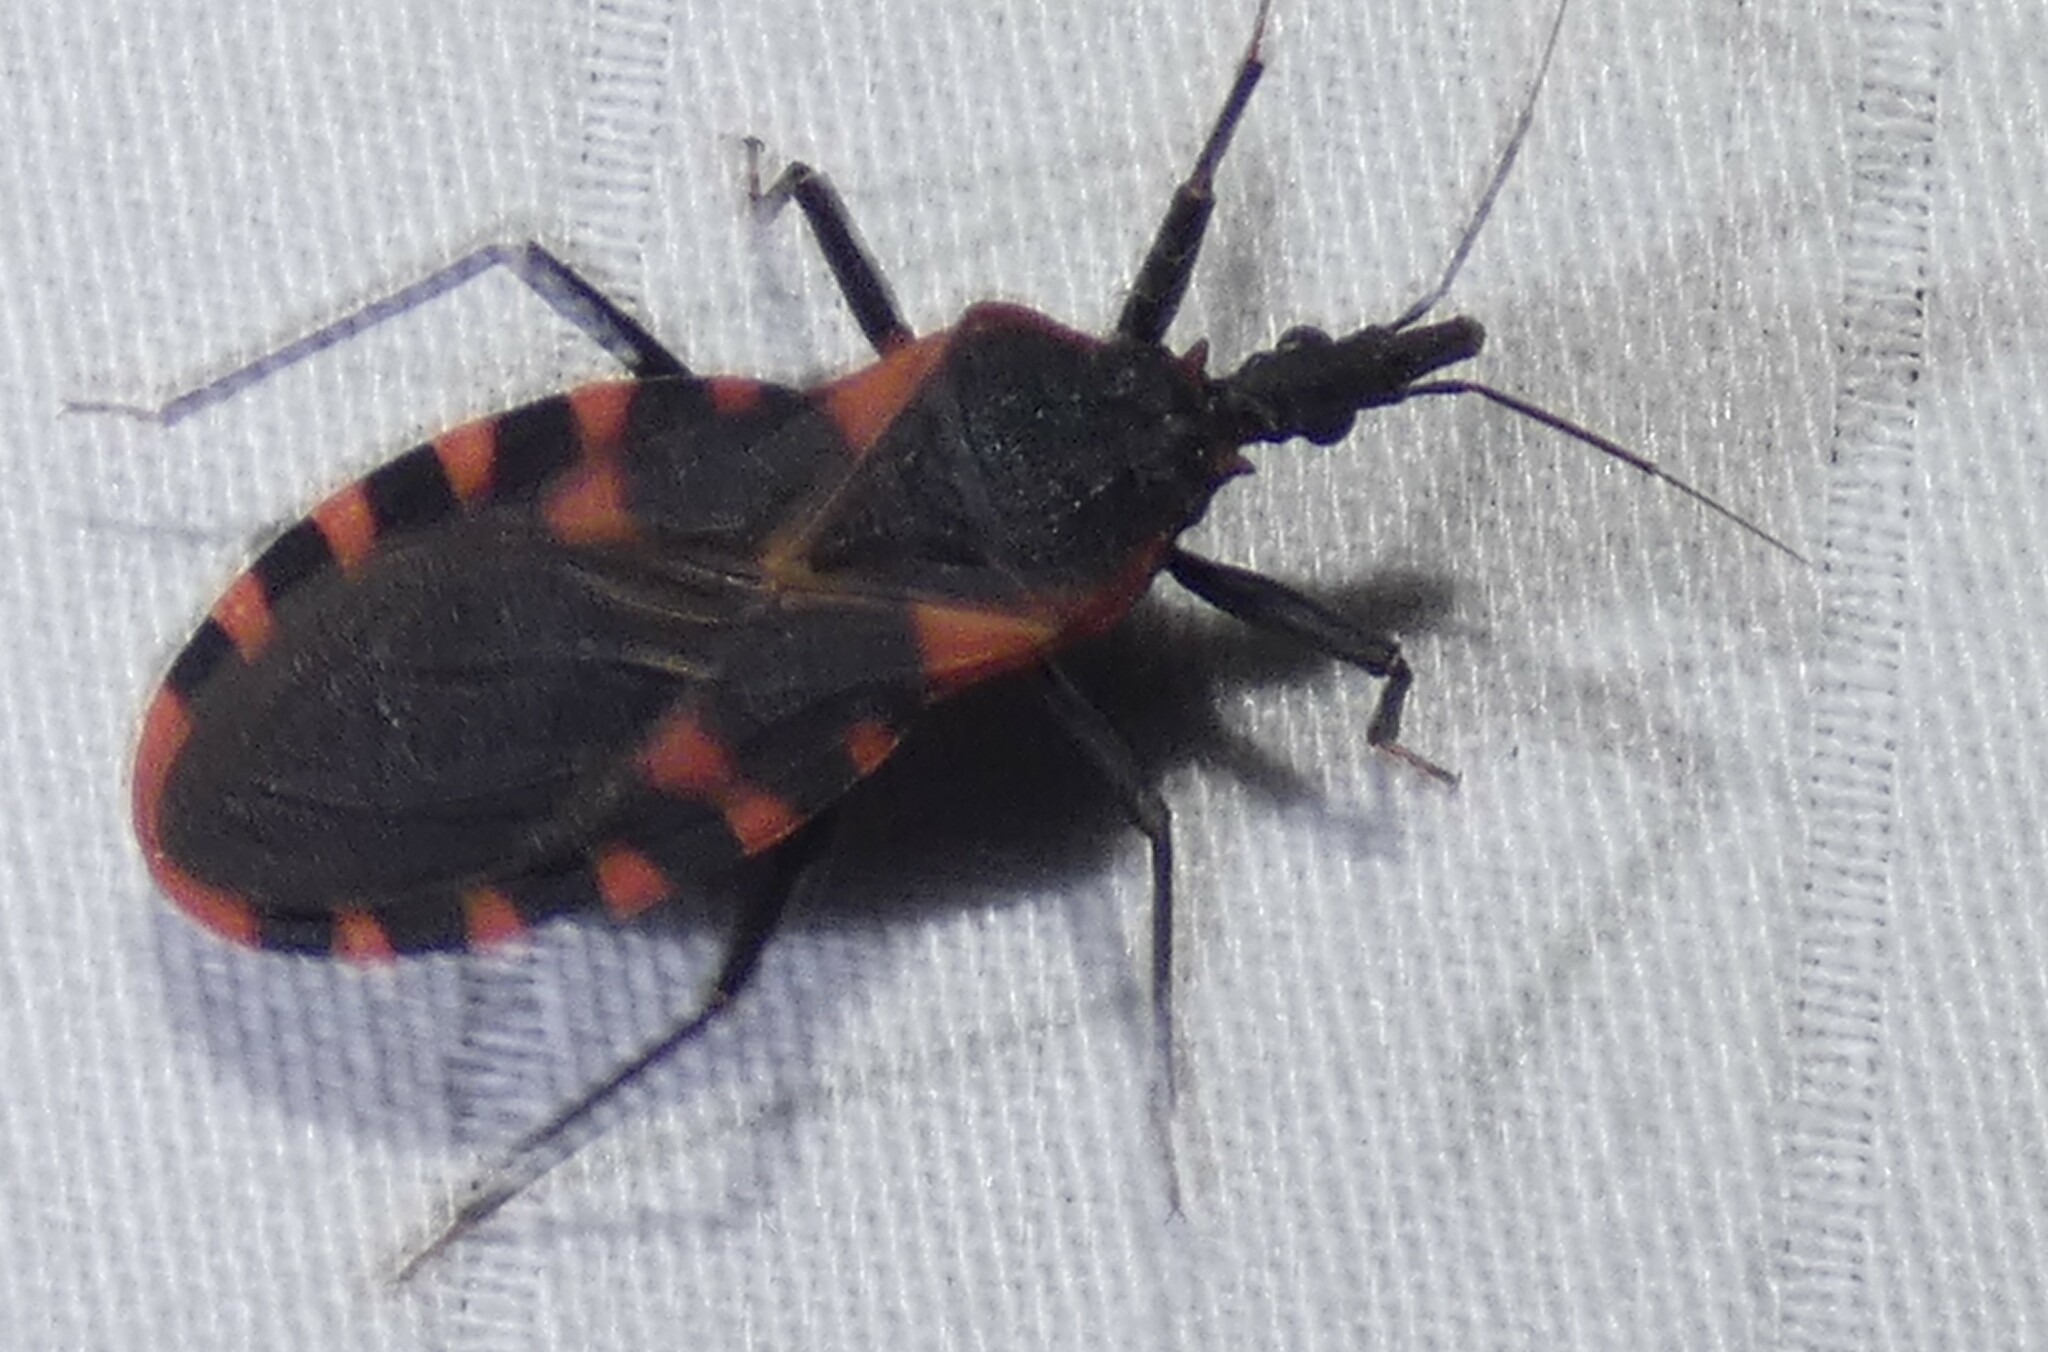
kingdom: Animalia
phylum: Arthropoda
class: Insecta
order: Hemiptera
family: Reduviidae
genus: Triatoma
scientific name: Triatoma sanguisuga
